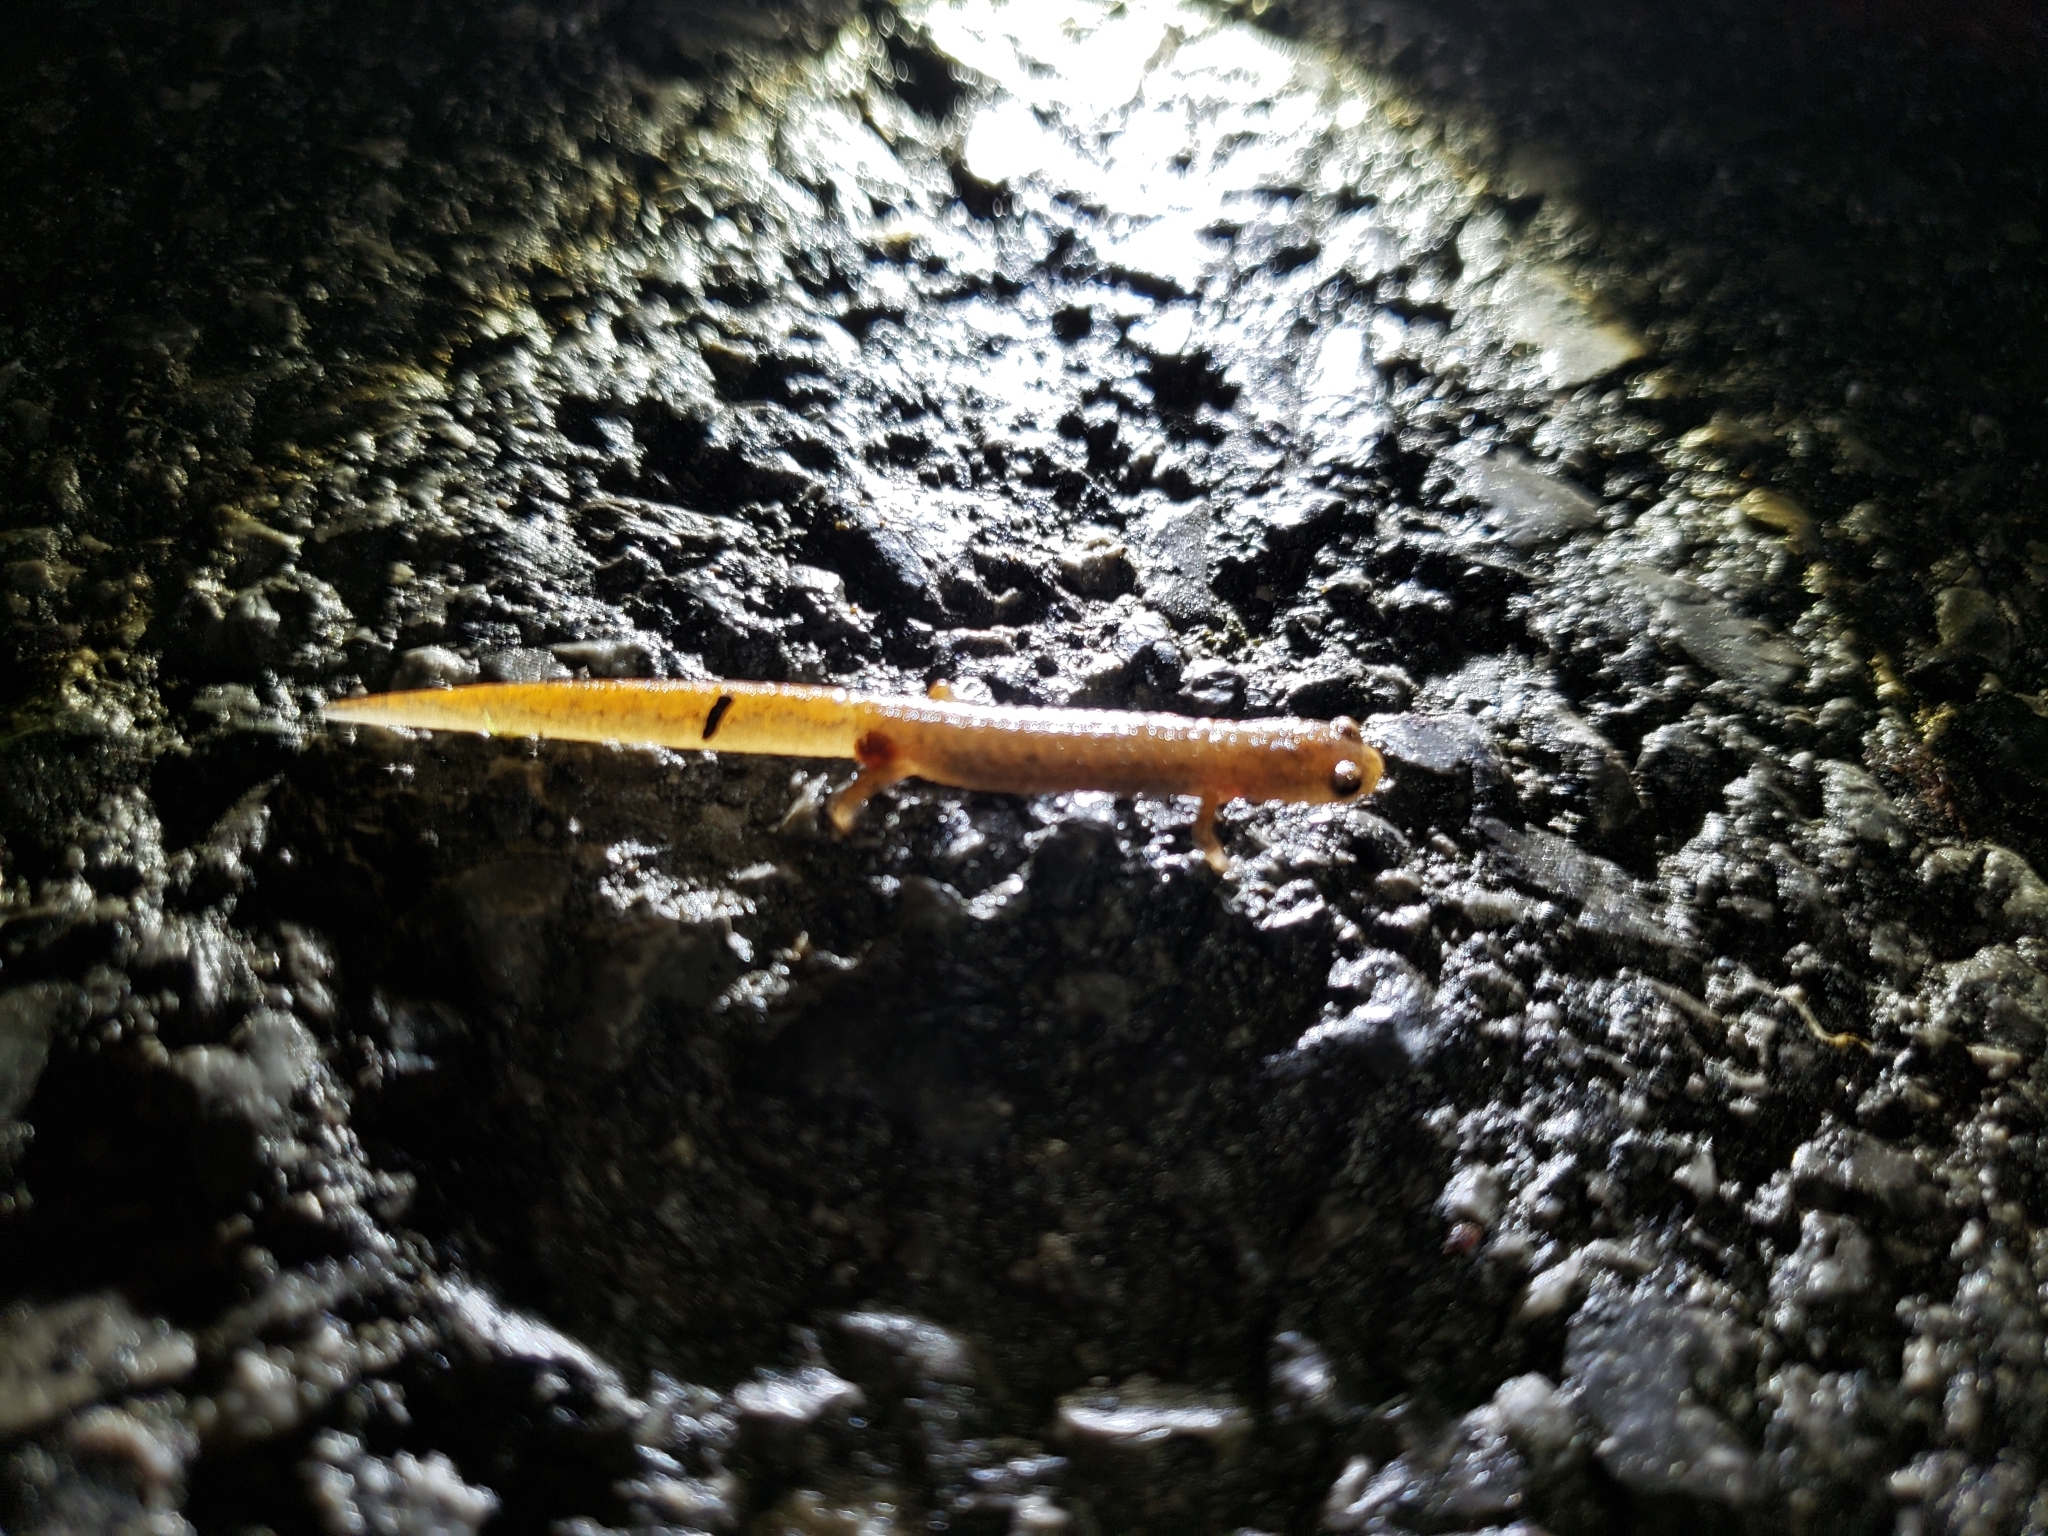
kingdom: Animalia
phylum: Chordata
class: Amphibia
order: Caudata
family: Plethodontidae
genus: Hemidactylium
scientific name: Hemidactylium scutatum
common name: Four-toed salamander
